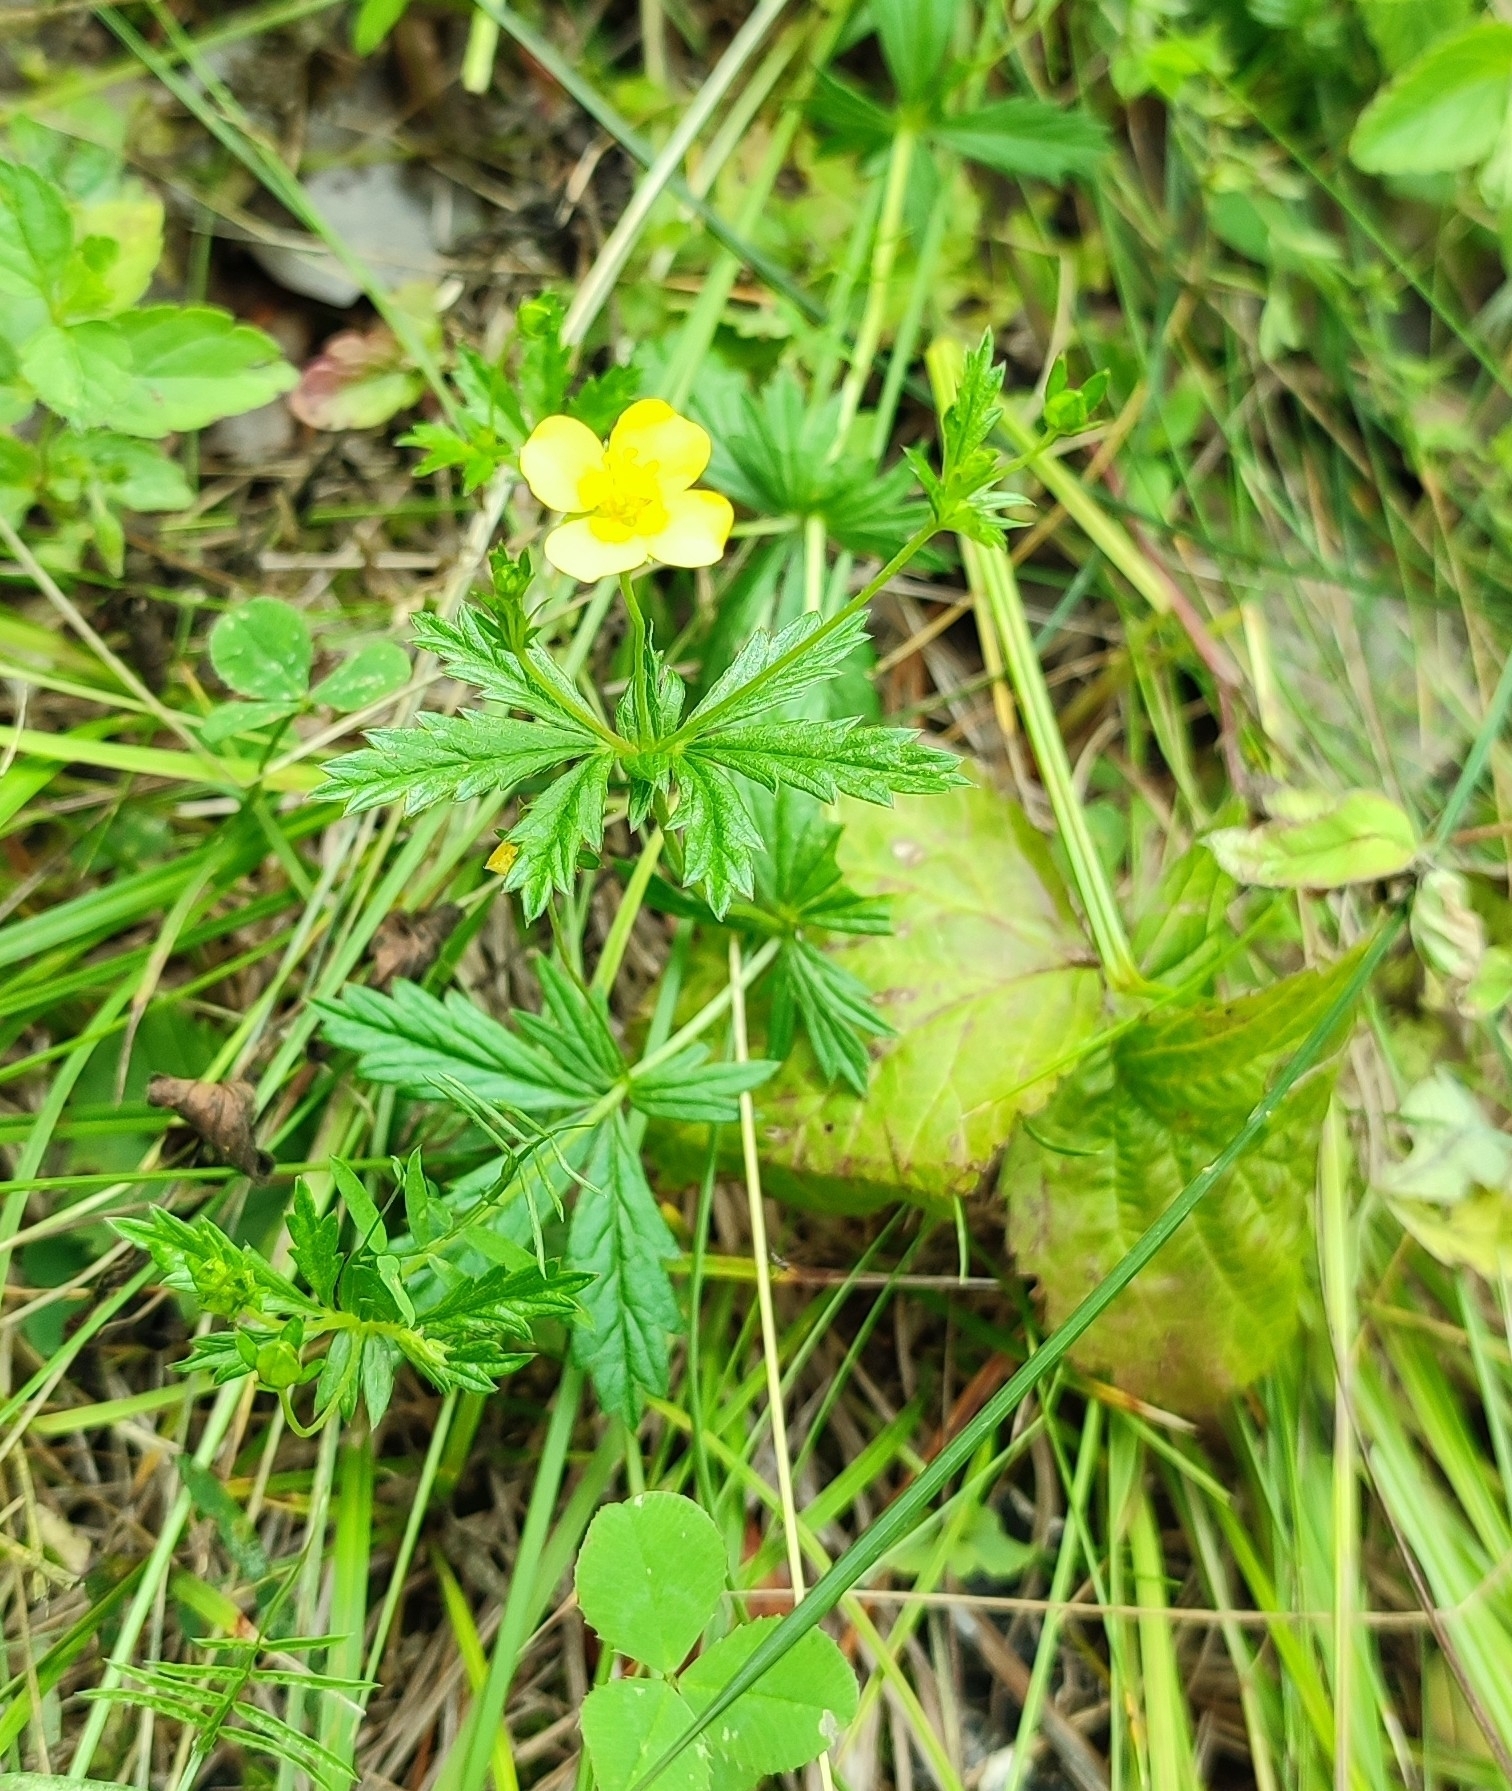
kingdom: Plantae
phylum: Tracheophyta
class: Magnoliopsida
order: Rosales
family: Rosaceae
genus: Potentilla
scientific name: Potentilla erecta
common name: Tormentil
